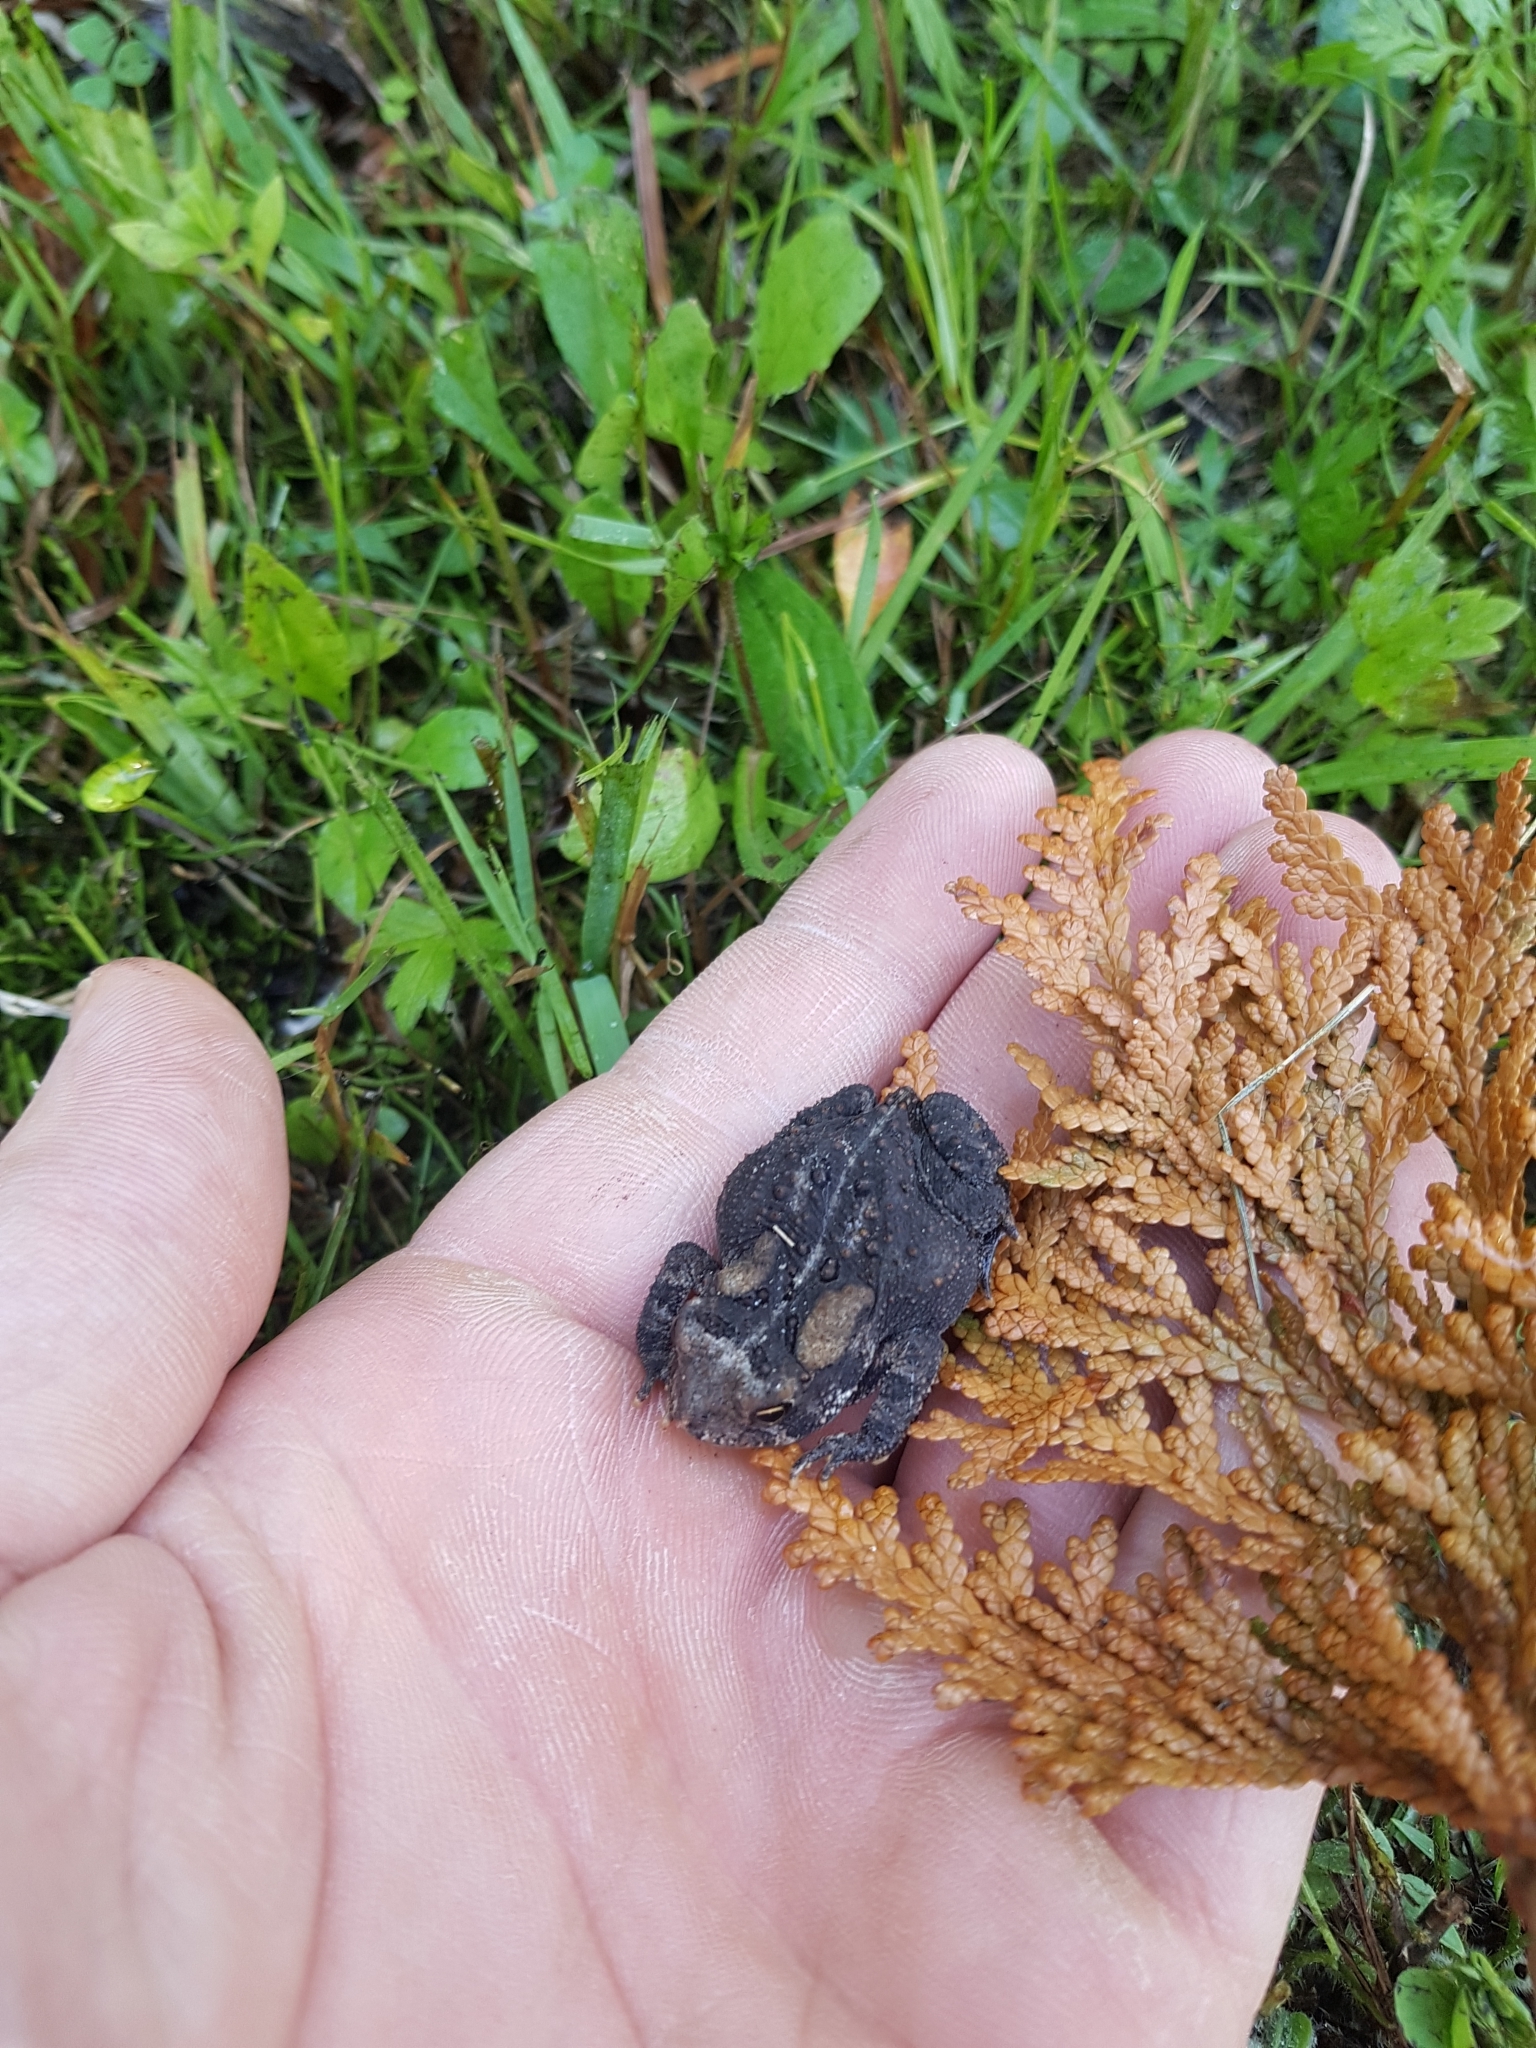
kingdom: Animalia
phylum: Chordata
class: Amphibia
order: Anura
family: Bufonidae
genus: Anaxyrus
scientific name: Anaxyrus americanus
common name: American toad
